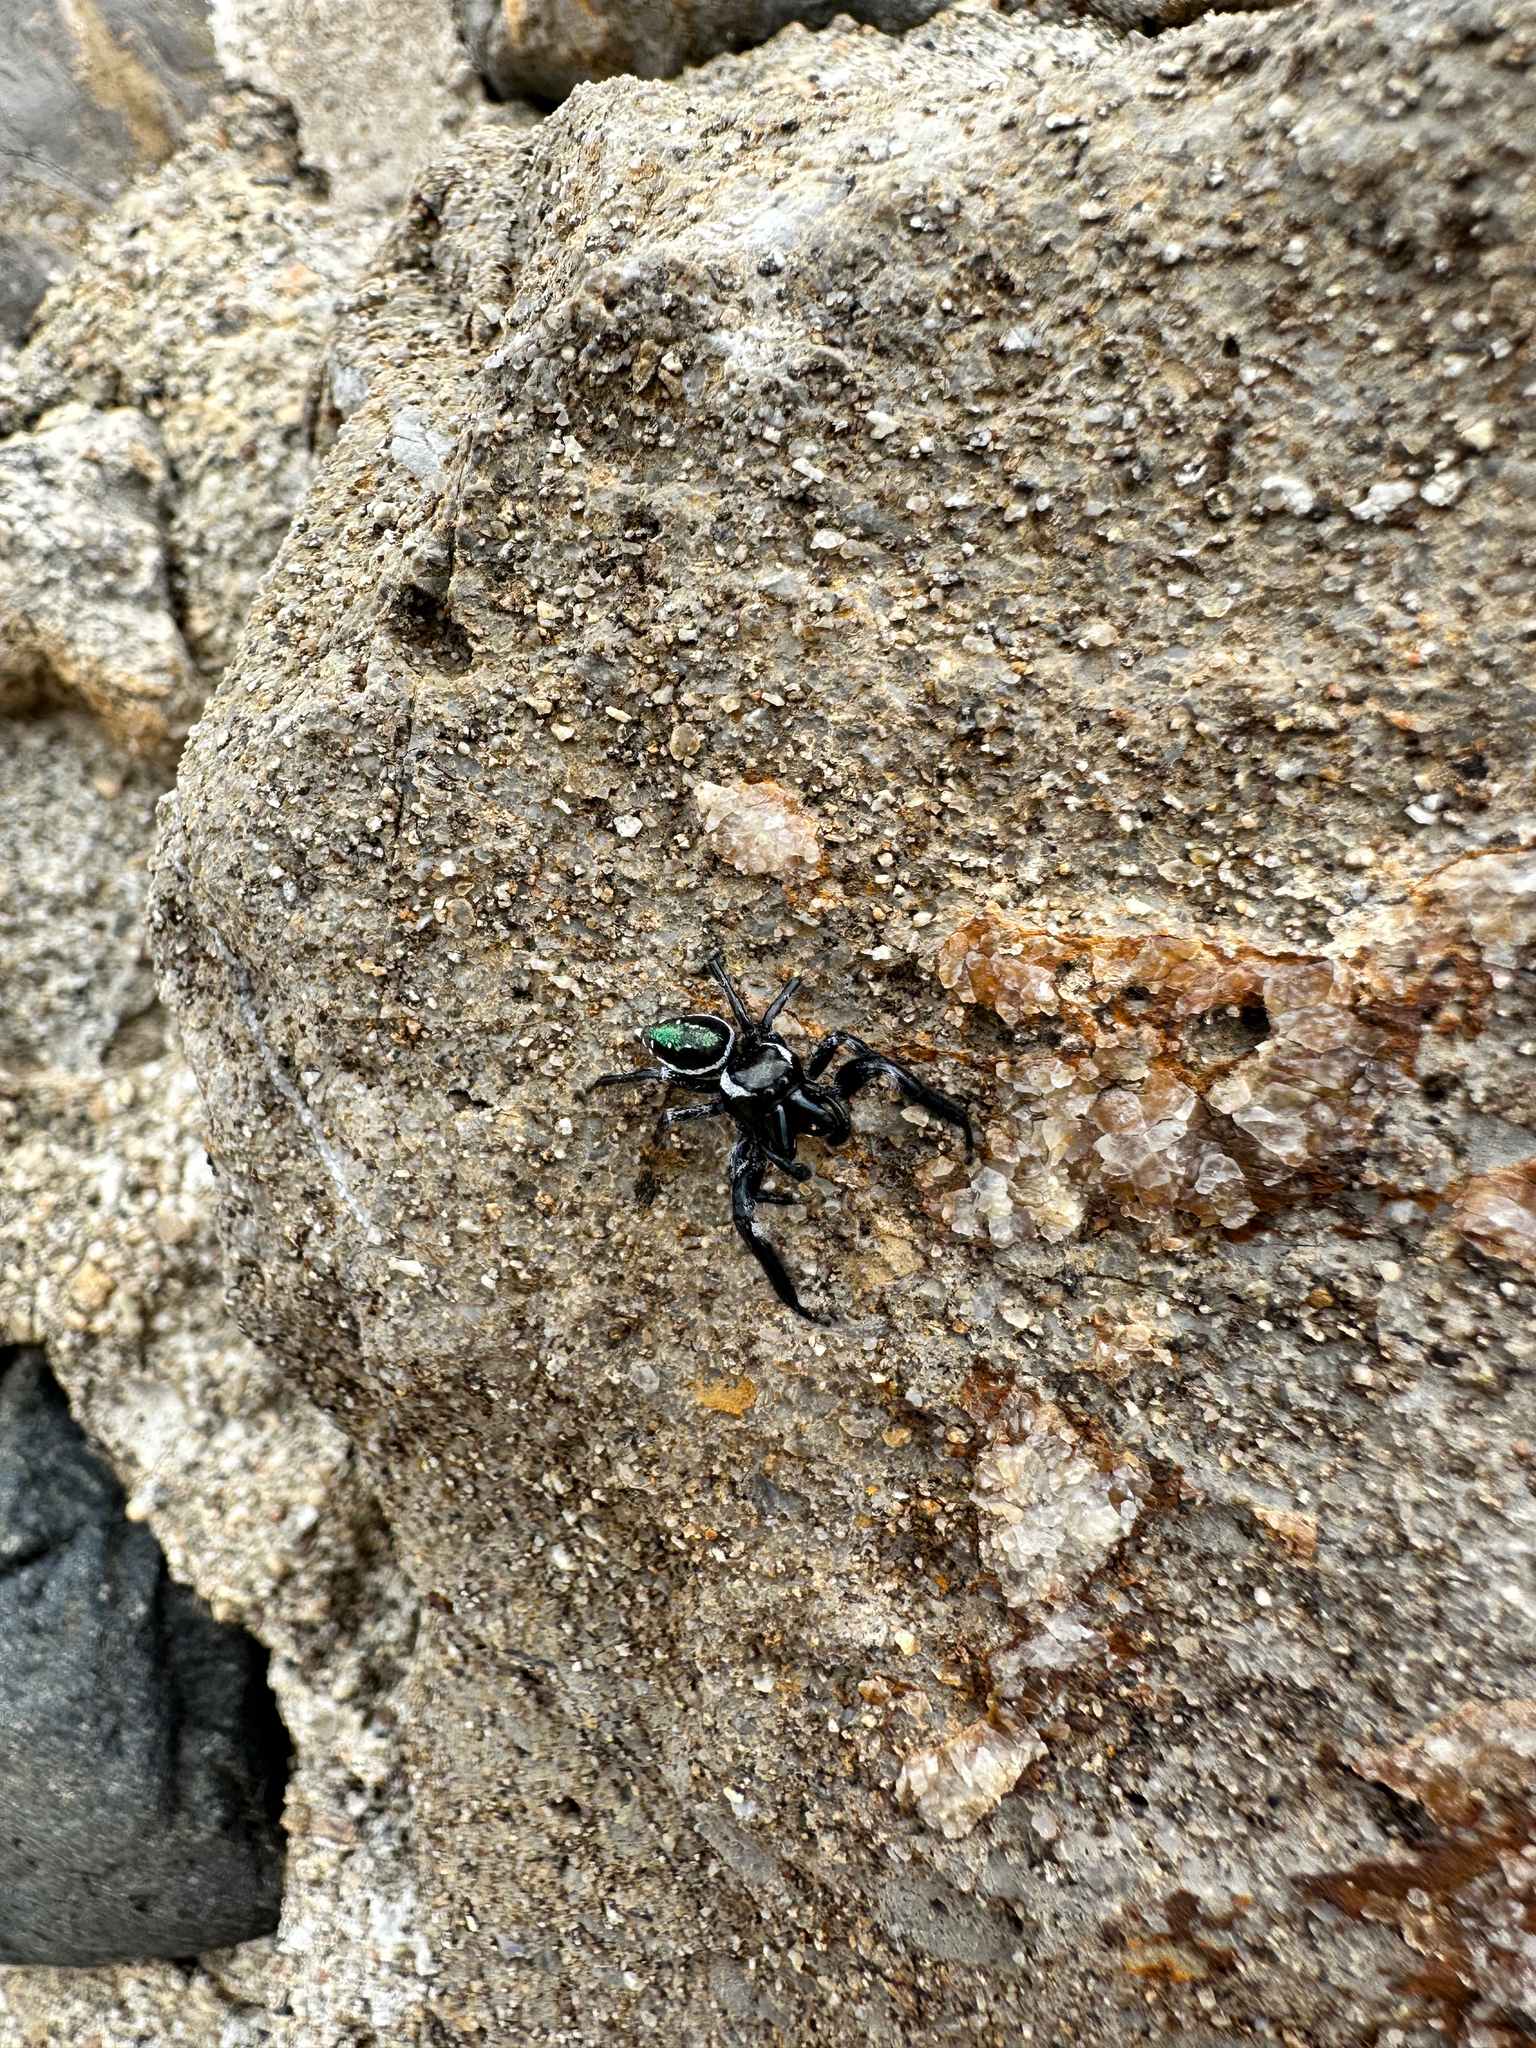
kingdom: Animalia
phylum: Arthropoda
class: Arachnida
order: Araneae
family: Salticidae
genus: Paraphidippus
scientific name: Paraphidippus aurantius
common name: Jumping spiders
